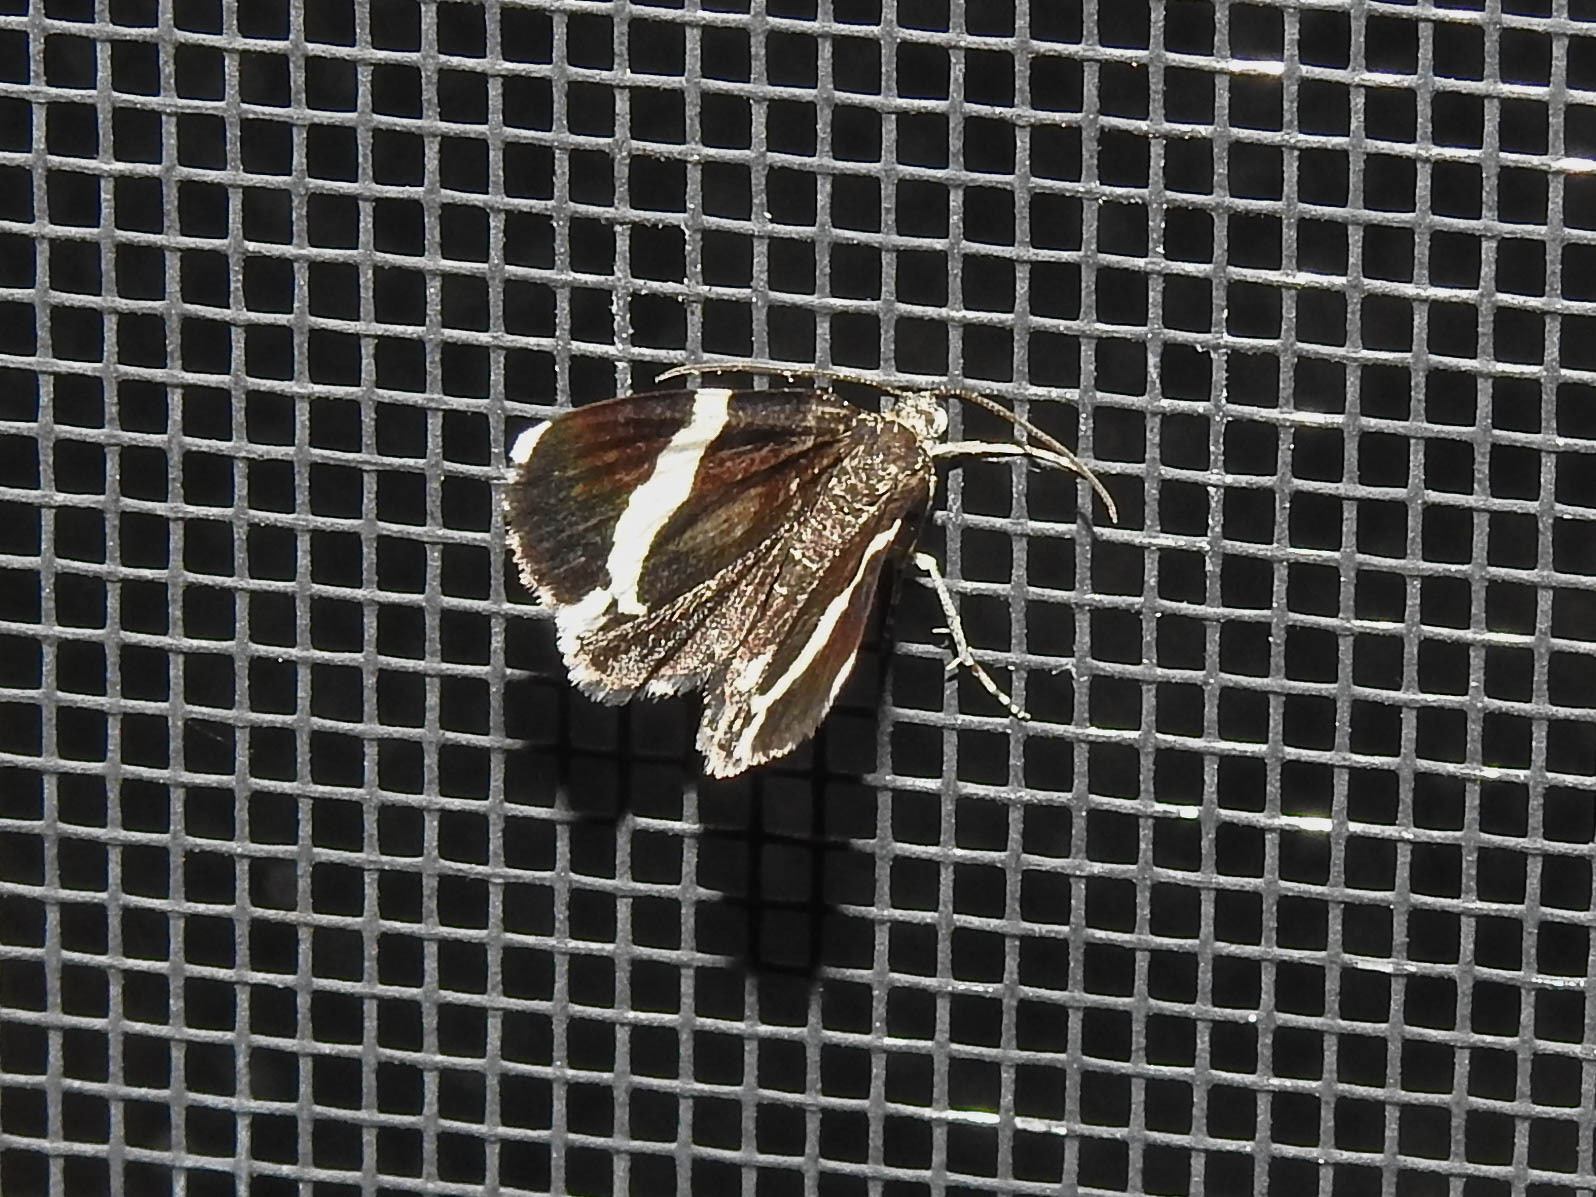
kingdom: Animalia
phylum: Arthropoda
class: Insecta
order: Lepidoptera
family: Geometridae
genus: Trichodezia
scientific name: Trichodezia albovittata
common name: White striped black
